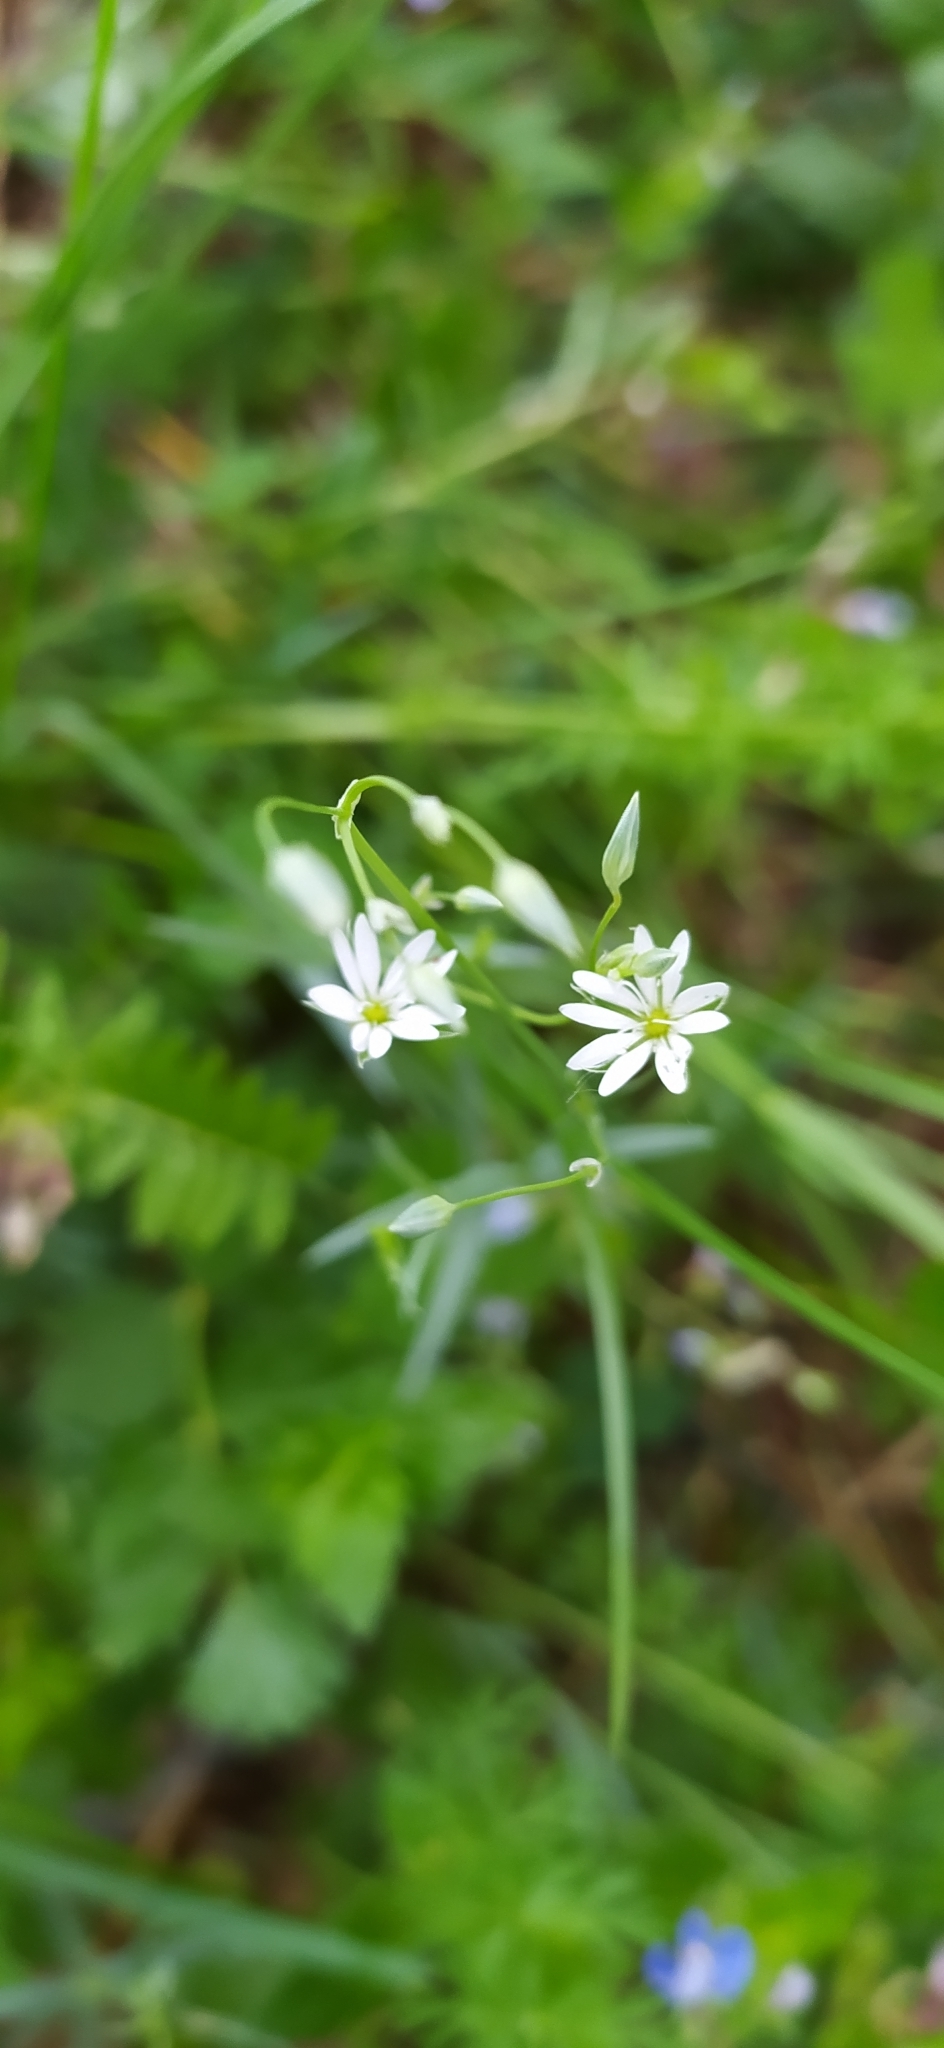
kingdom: Plantae
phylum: Tracheophyta
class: Magnoliopsida
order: Caryophyllales
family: Caryophyllaceae
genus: Stellaria
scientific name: Stellaria graminea
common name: Grass-like starwort
